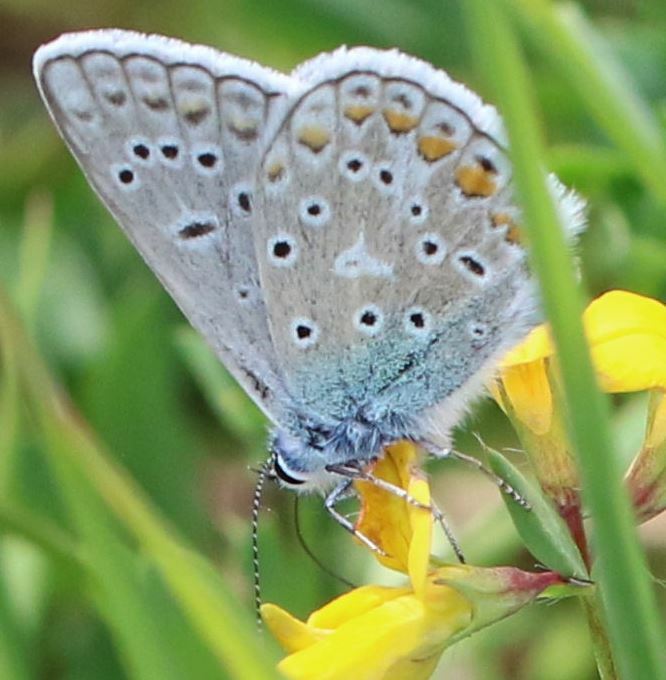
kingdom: Animalia
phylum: Arthropoda
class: Insecta
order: Lepidoptera
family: Lycaenidae
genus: Polyommatus
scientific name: Polyommatus icarus
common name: Common blue
